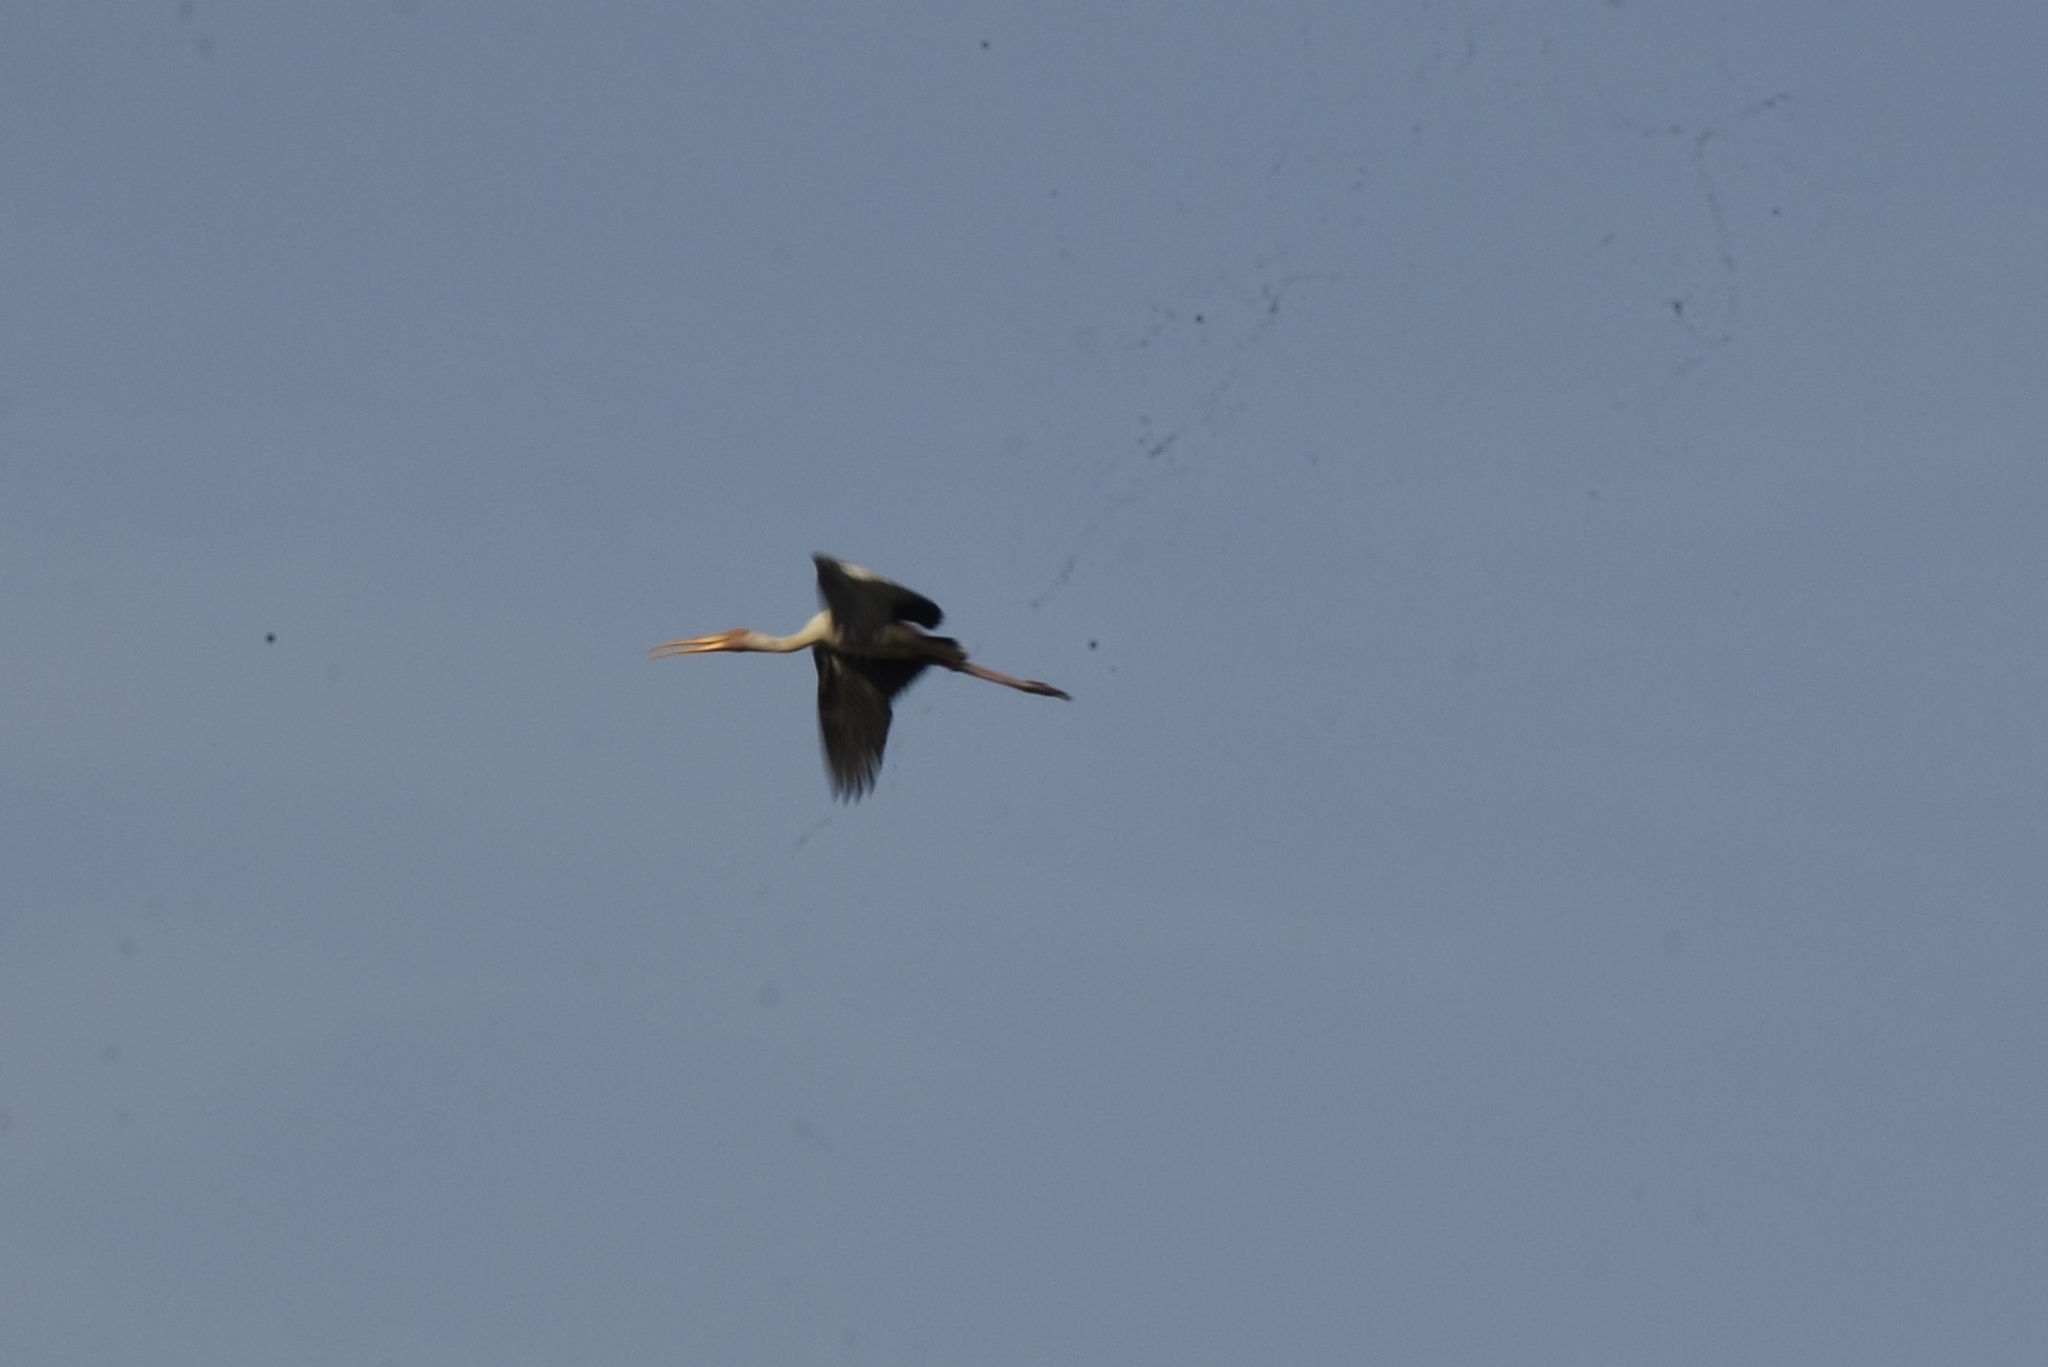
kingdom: Animalia
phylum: Chordata
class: Aves
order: Ciconiiformes
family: Ciconiidae
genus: Mycteria
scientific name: Mycteria leucocephala
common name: Painted stork
